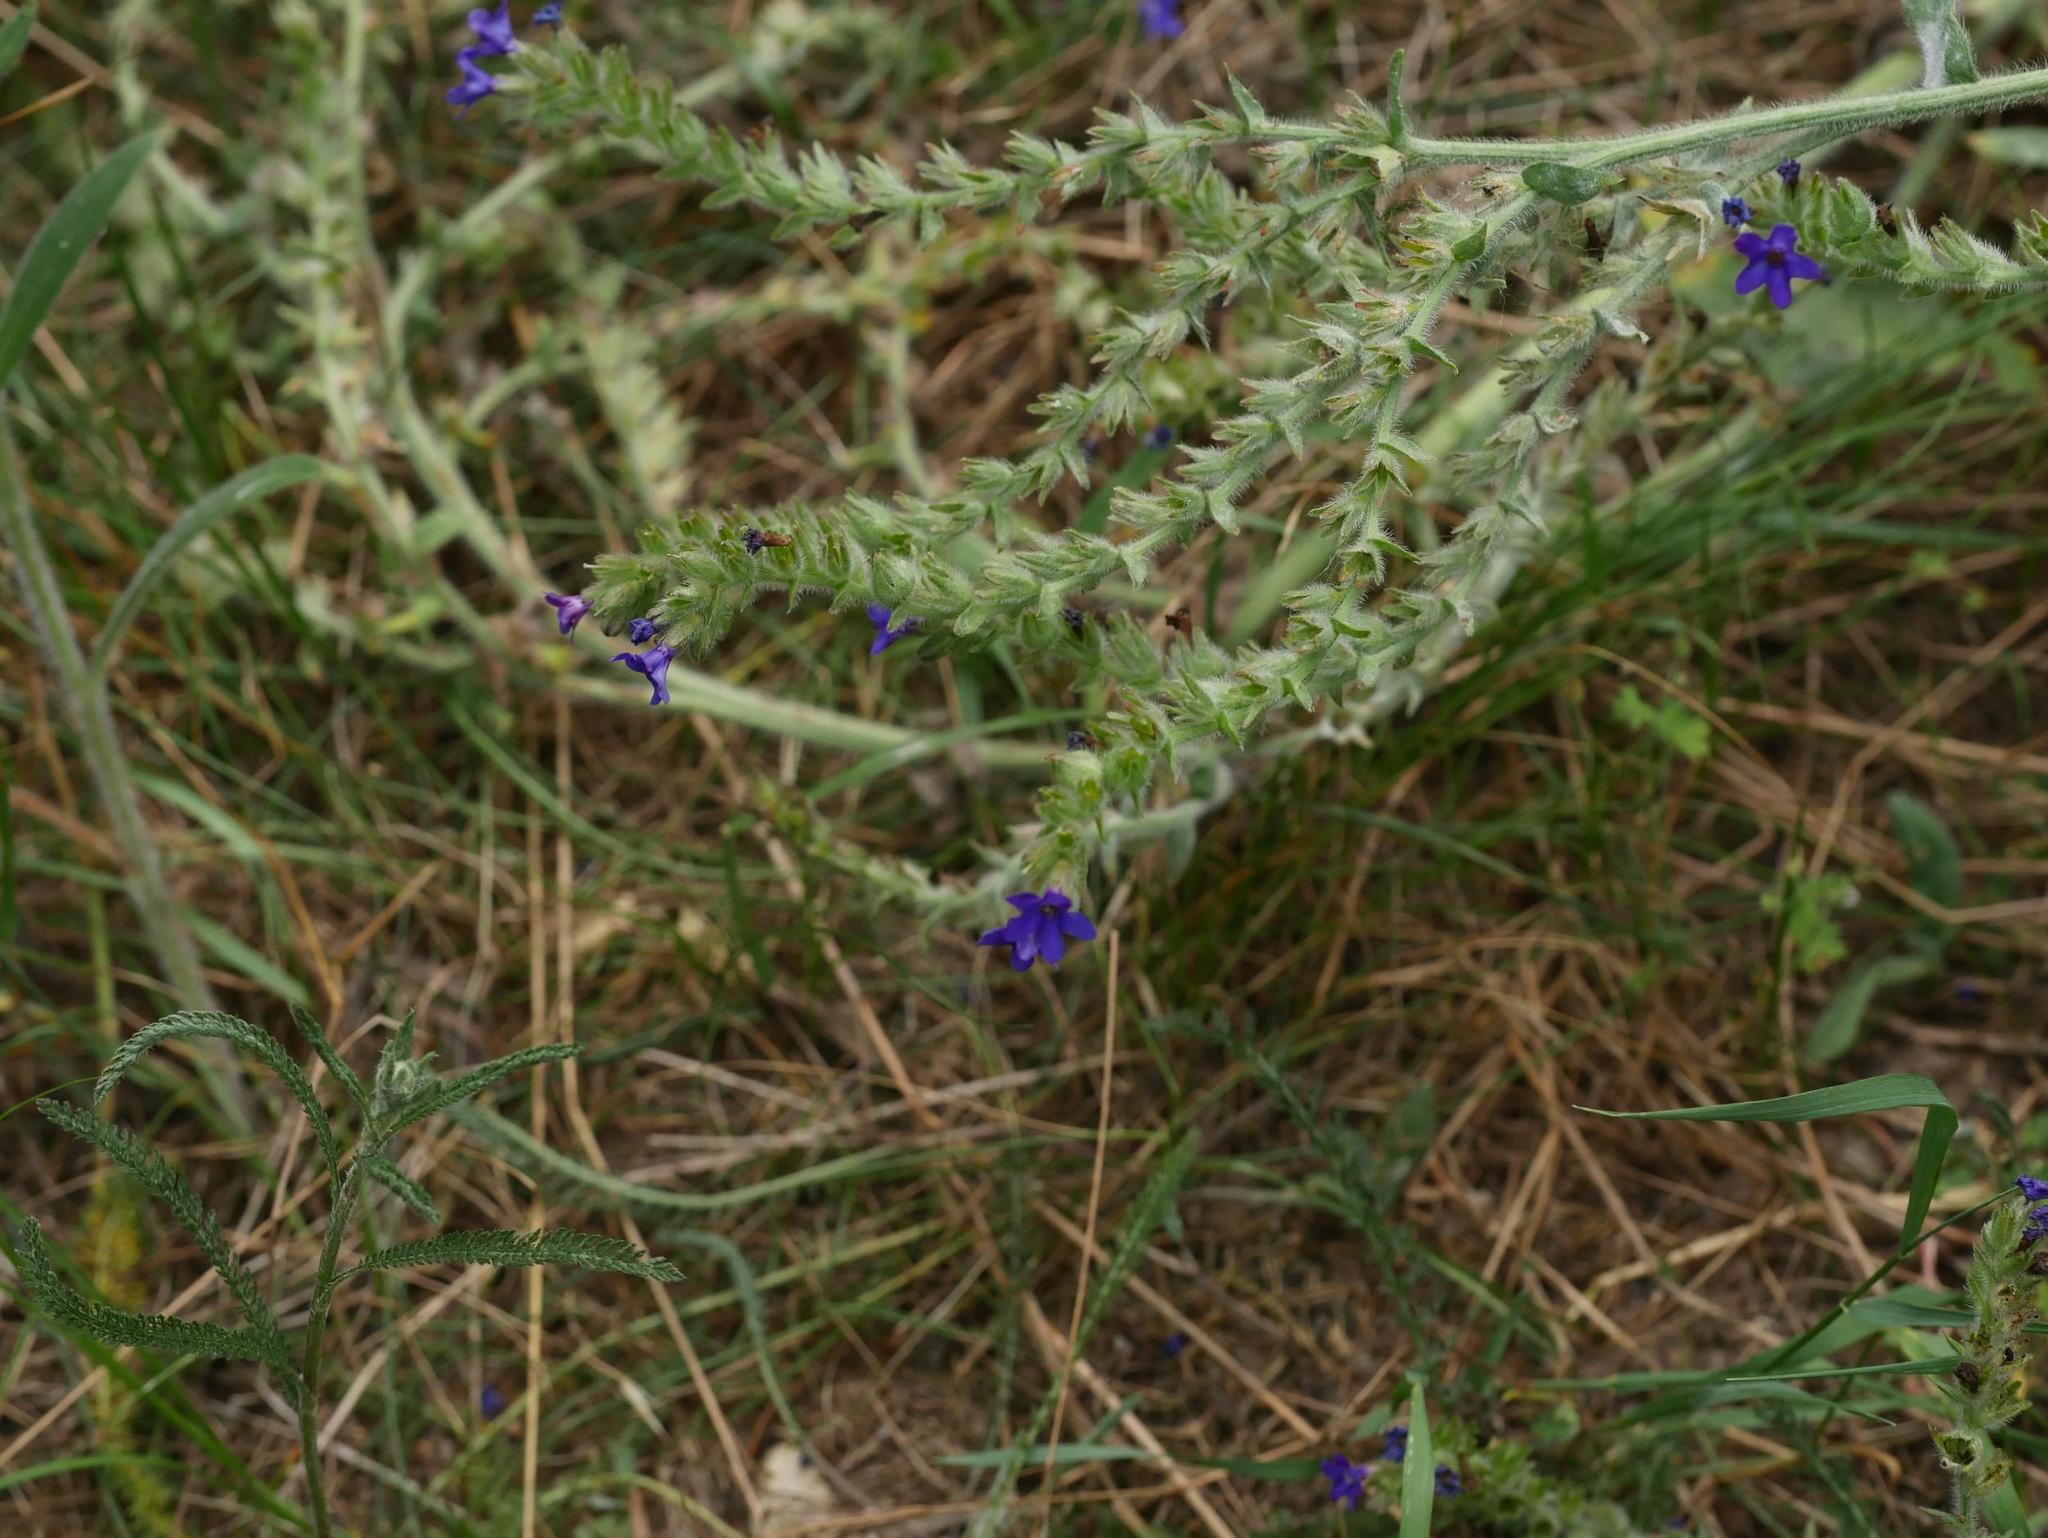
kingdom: Plantae
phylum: Tracheophyta
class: Magnoliopsida
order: Boraginales
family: Boraginaceae
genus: Anchusa
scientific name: Anchusa officinalis
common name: Alkanet
